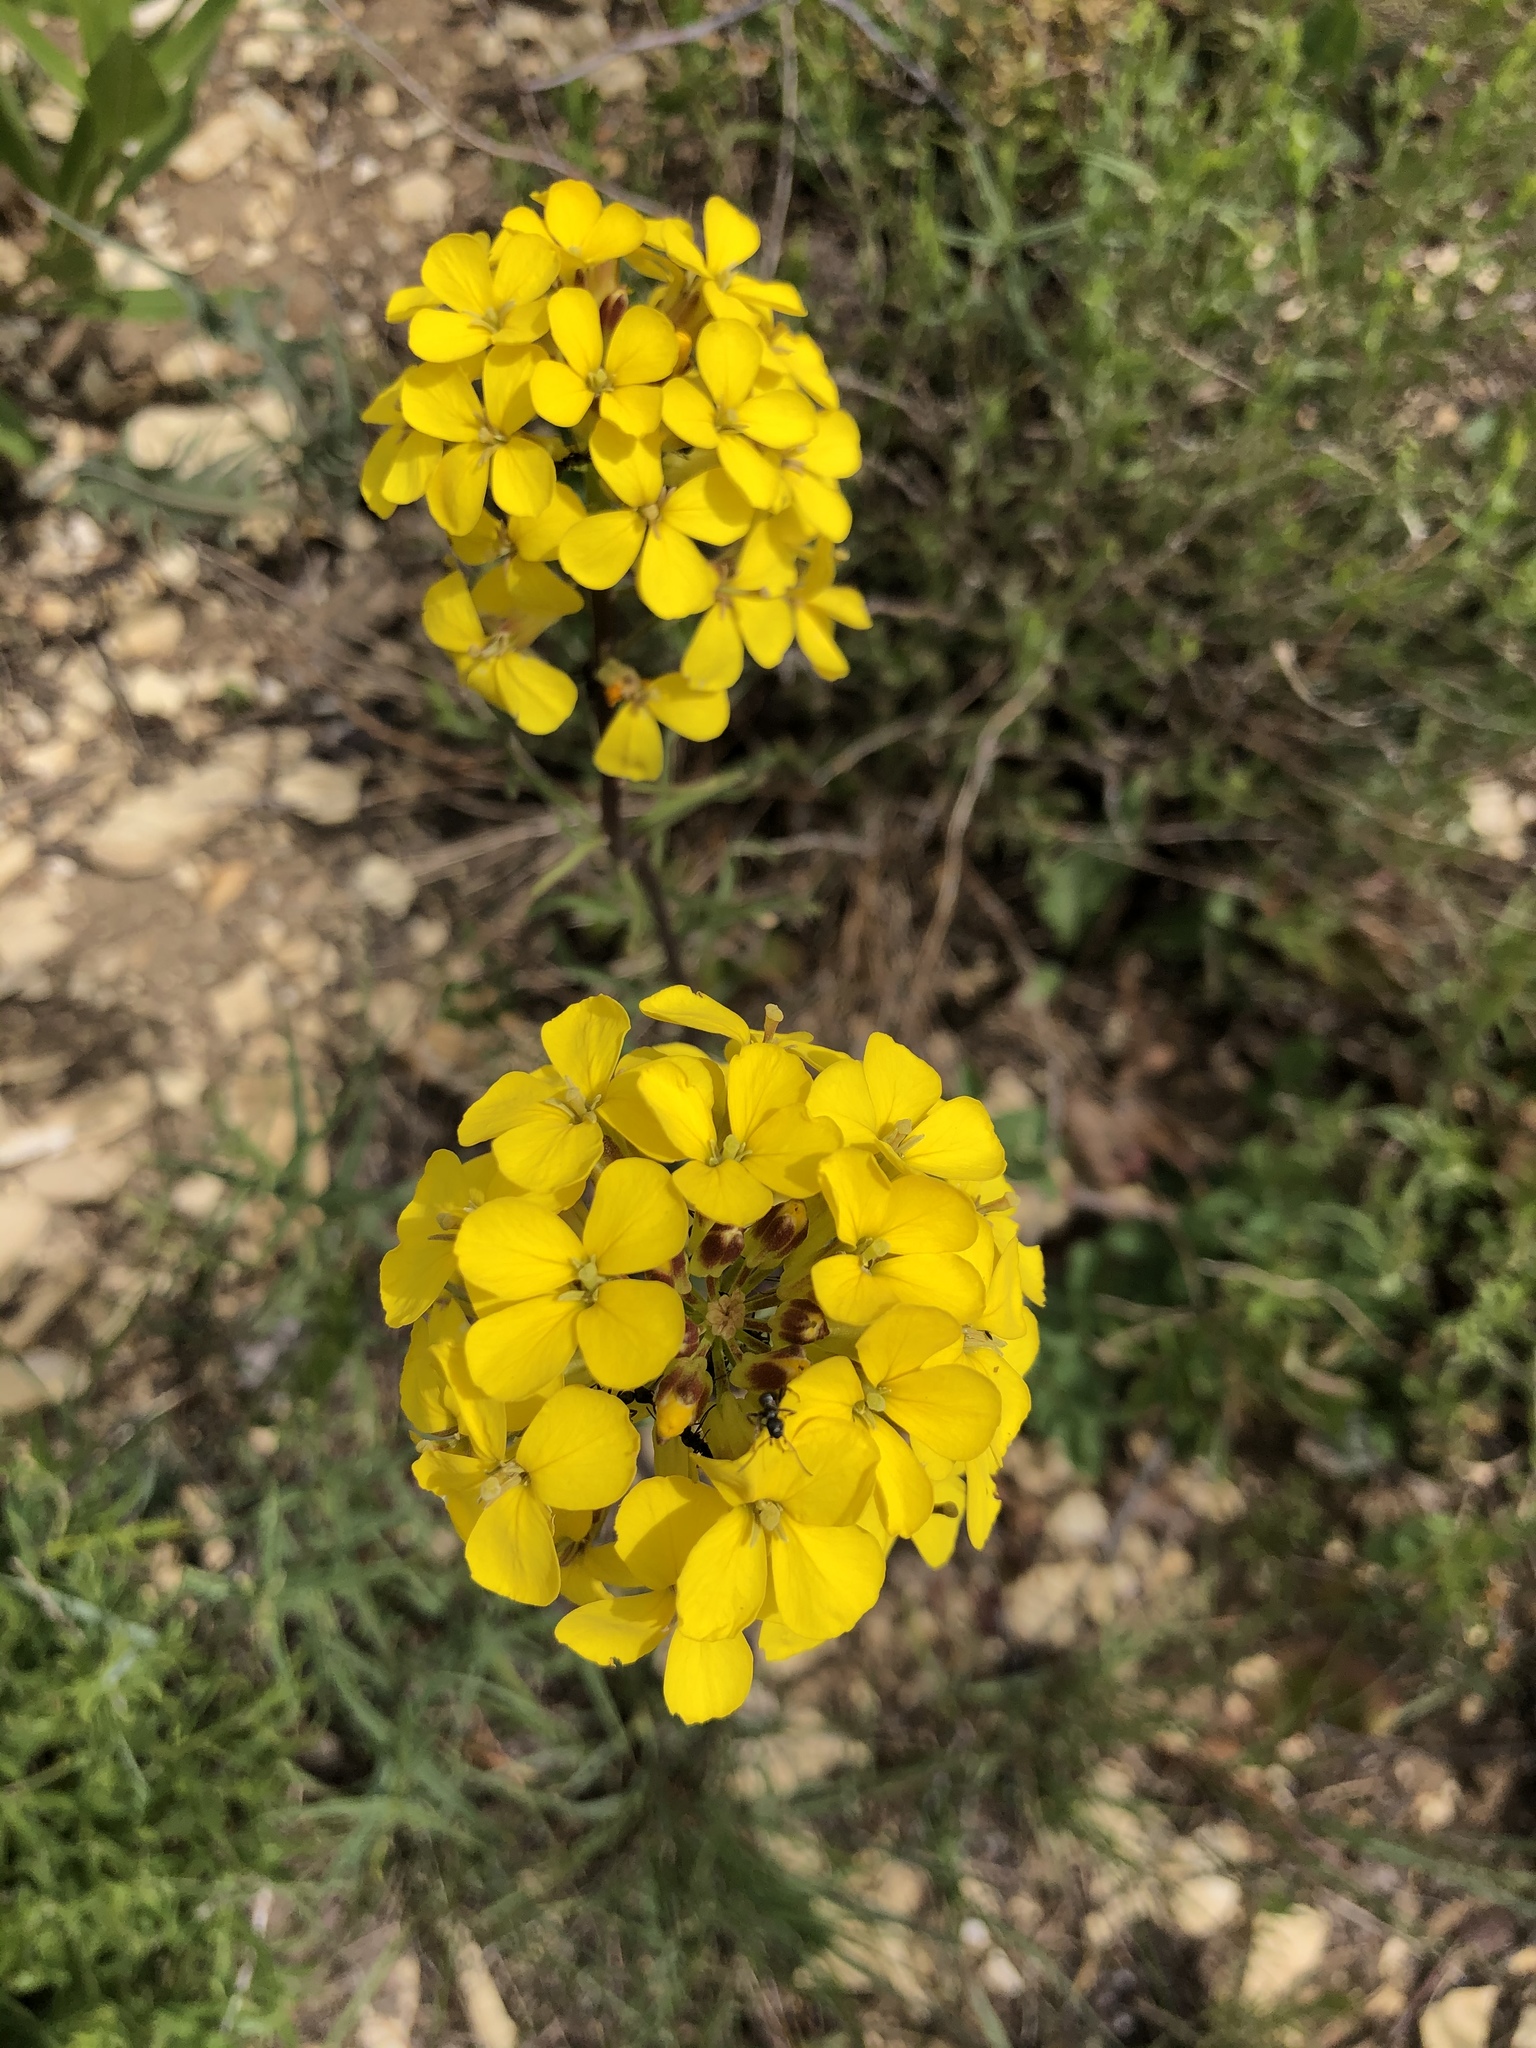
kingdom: Plantae
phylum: Tracheophyta
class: Magnoliopsida
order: Brassicales
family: Brassicaceae
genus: Erysimum
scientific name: Erysimum capitatum
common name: Western wallflower
